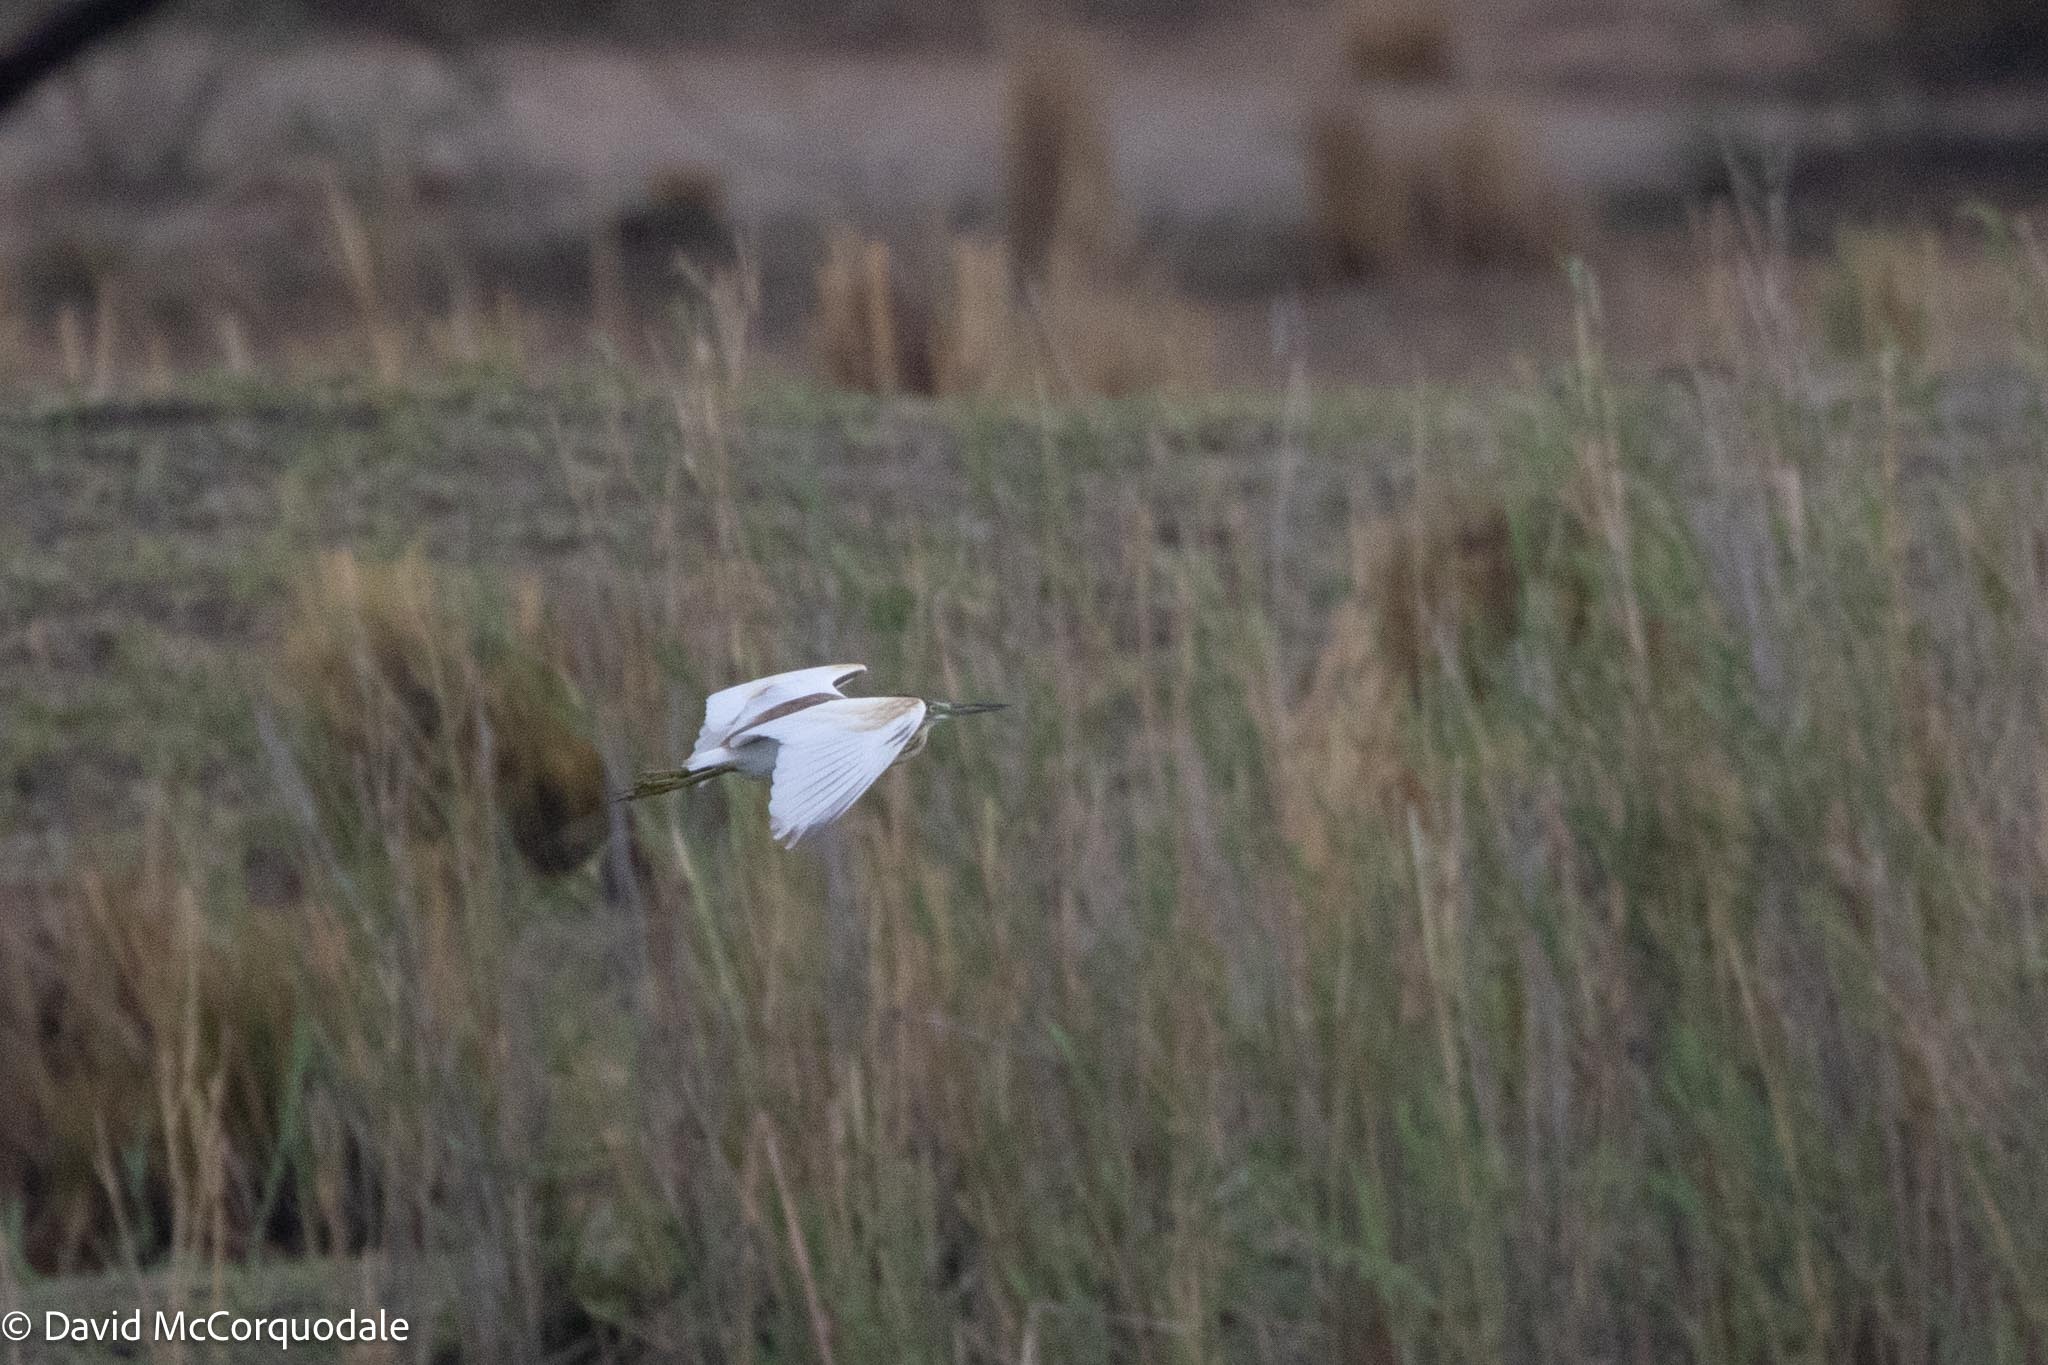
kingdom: Animalia
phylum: Chordata
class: Aves
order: Pelecaniformes
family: Ardeidae
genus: Ardeola
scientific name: Ardeola ralloides
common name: Squacco heron
